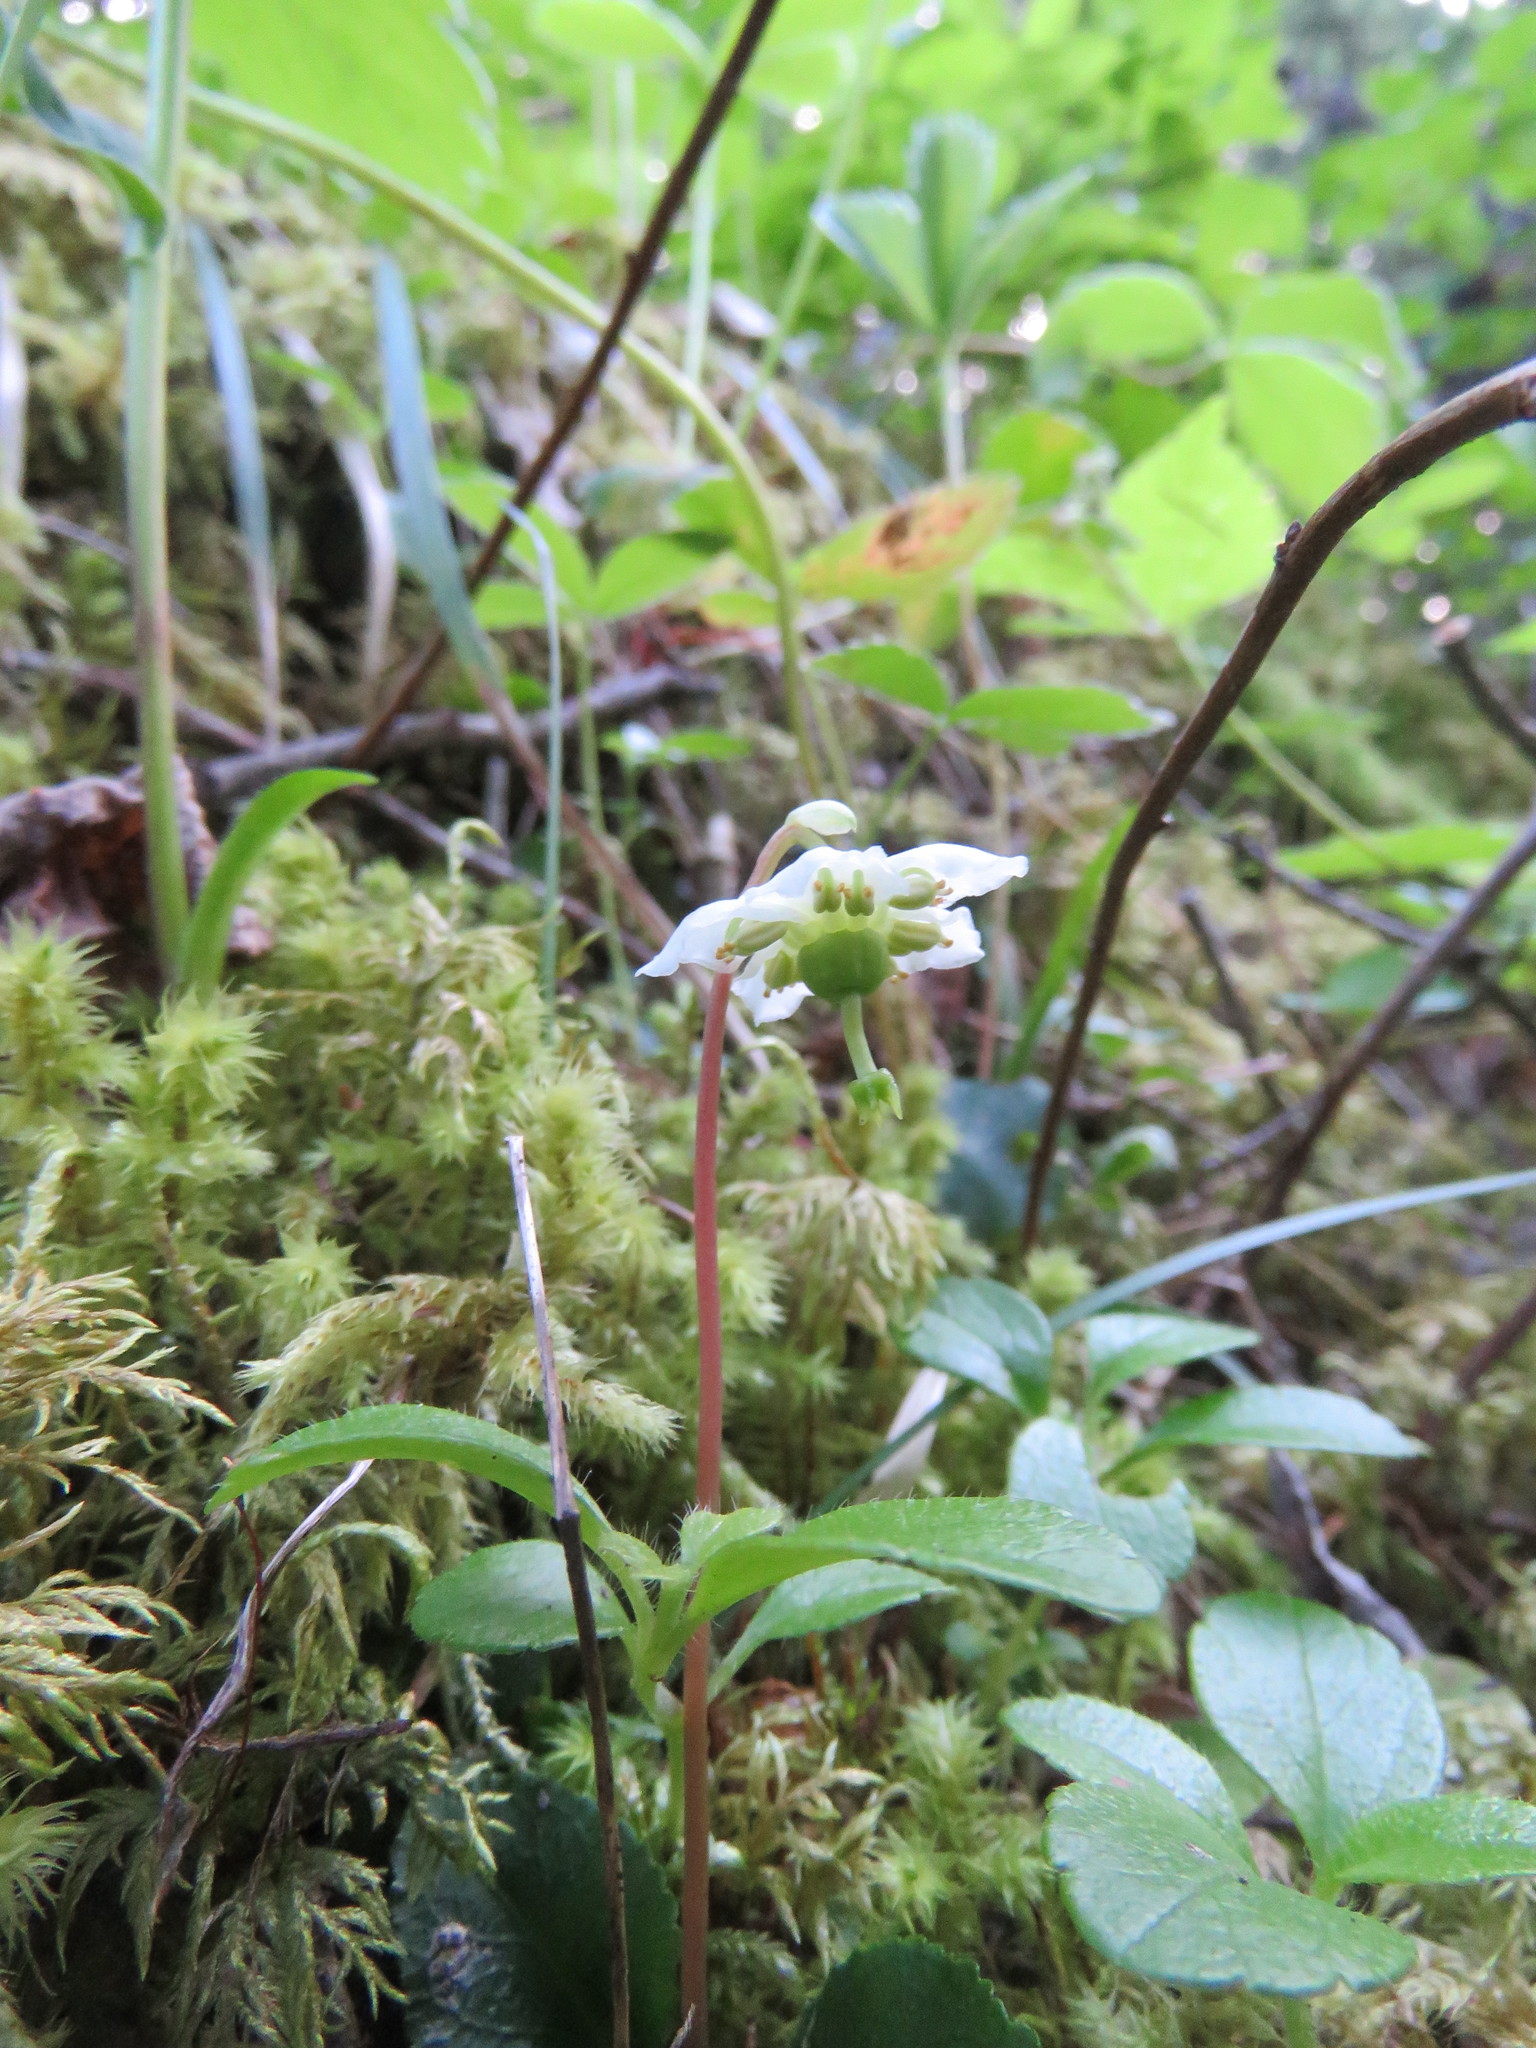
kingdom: Plantae
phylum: Tracheophyta
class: Magnoliopsida
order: Ericales
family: Ericaceae
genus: Moneses
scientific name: Moneses uniflora
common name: One-flowered wintergreen
